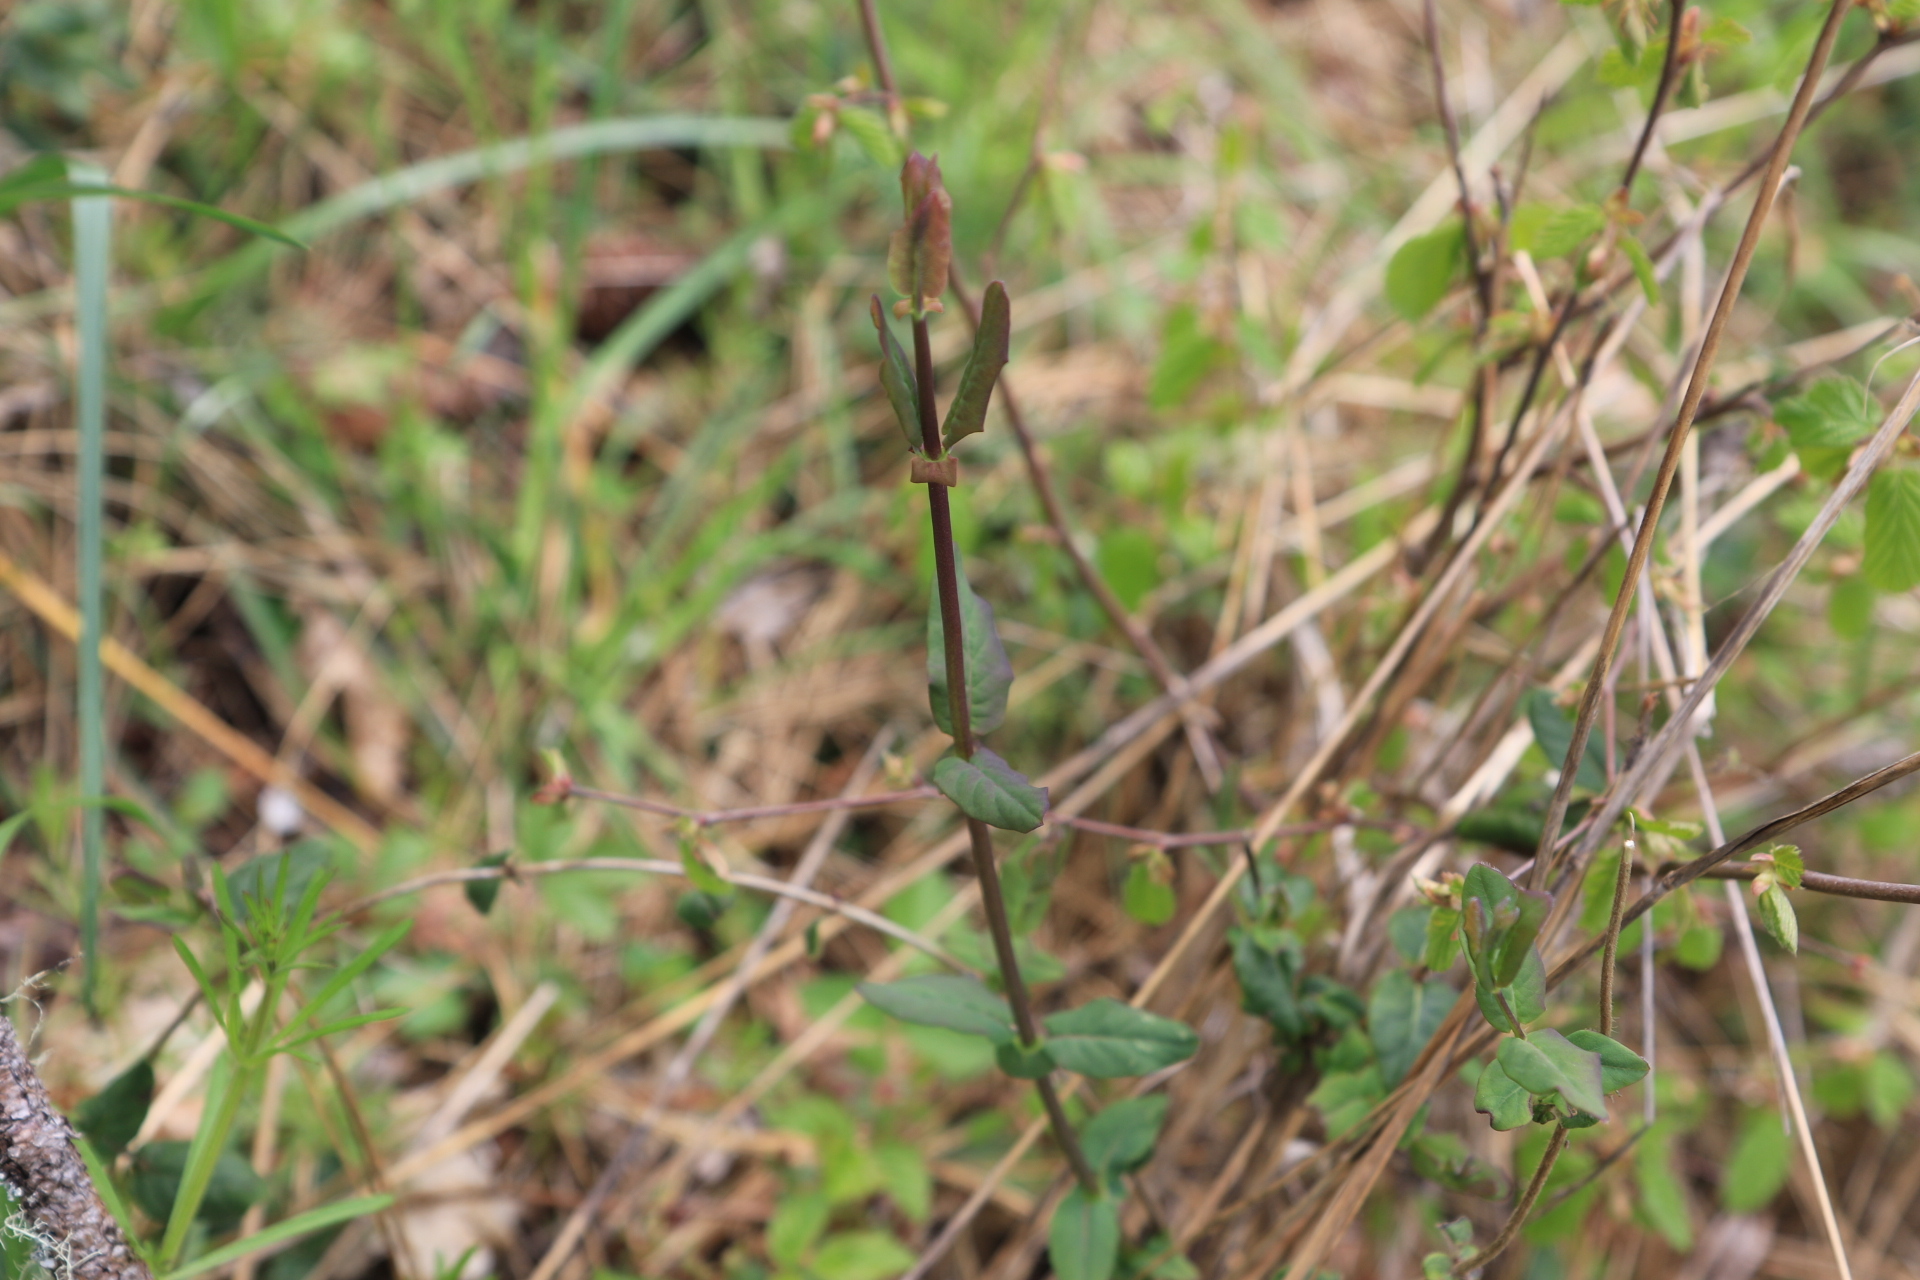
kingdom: Plantae
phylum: Tracheophyta
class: Magnoliopsida
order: Dipsacales
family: Caprifoliaceae
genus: Lonicera
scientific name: Lonicera hispidula
